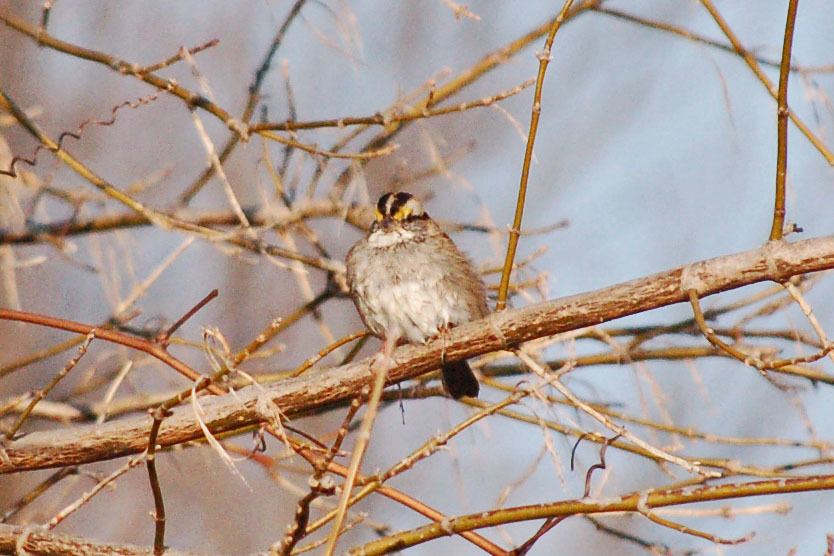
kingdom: Animalia
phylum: Chordata
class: Aves
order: Passeriformes
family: Passerellidae
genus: Zonotrichia
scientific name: Zonotrichia albicollis
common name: White-throated sparrow
